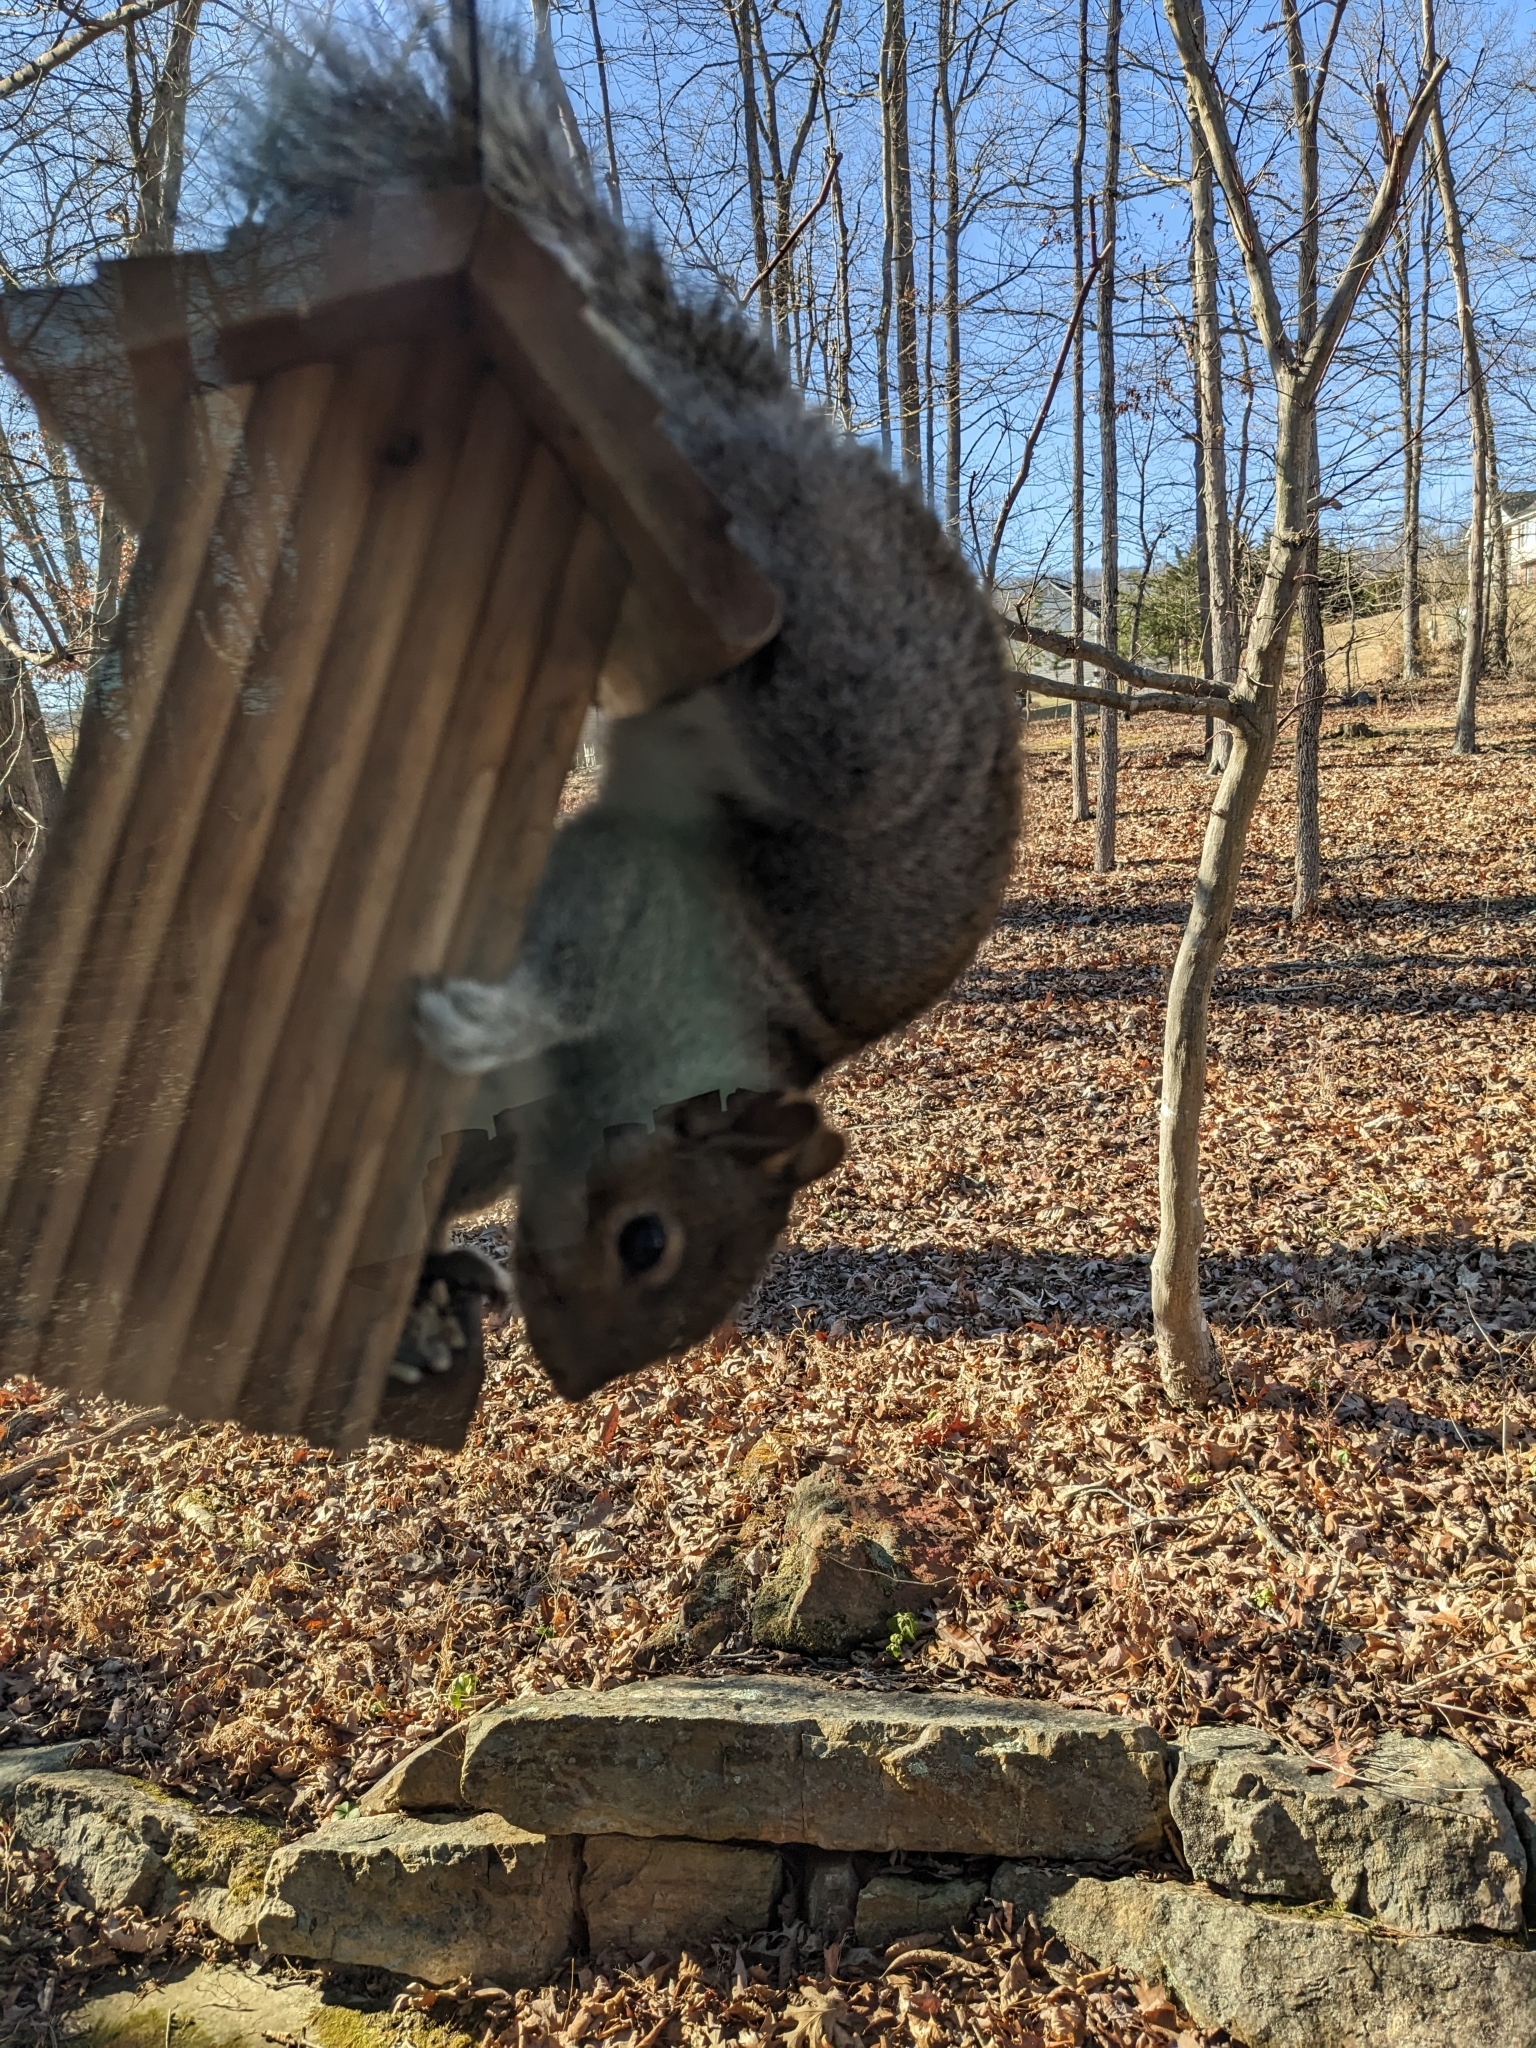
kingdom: Animalia
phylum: Chordata
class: Mammalia
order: Rodentia
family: Sciuridae
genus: Sciurus
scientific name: Sciurus carolinensis
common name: Eastern gray squirrel
